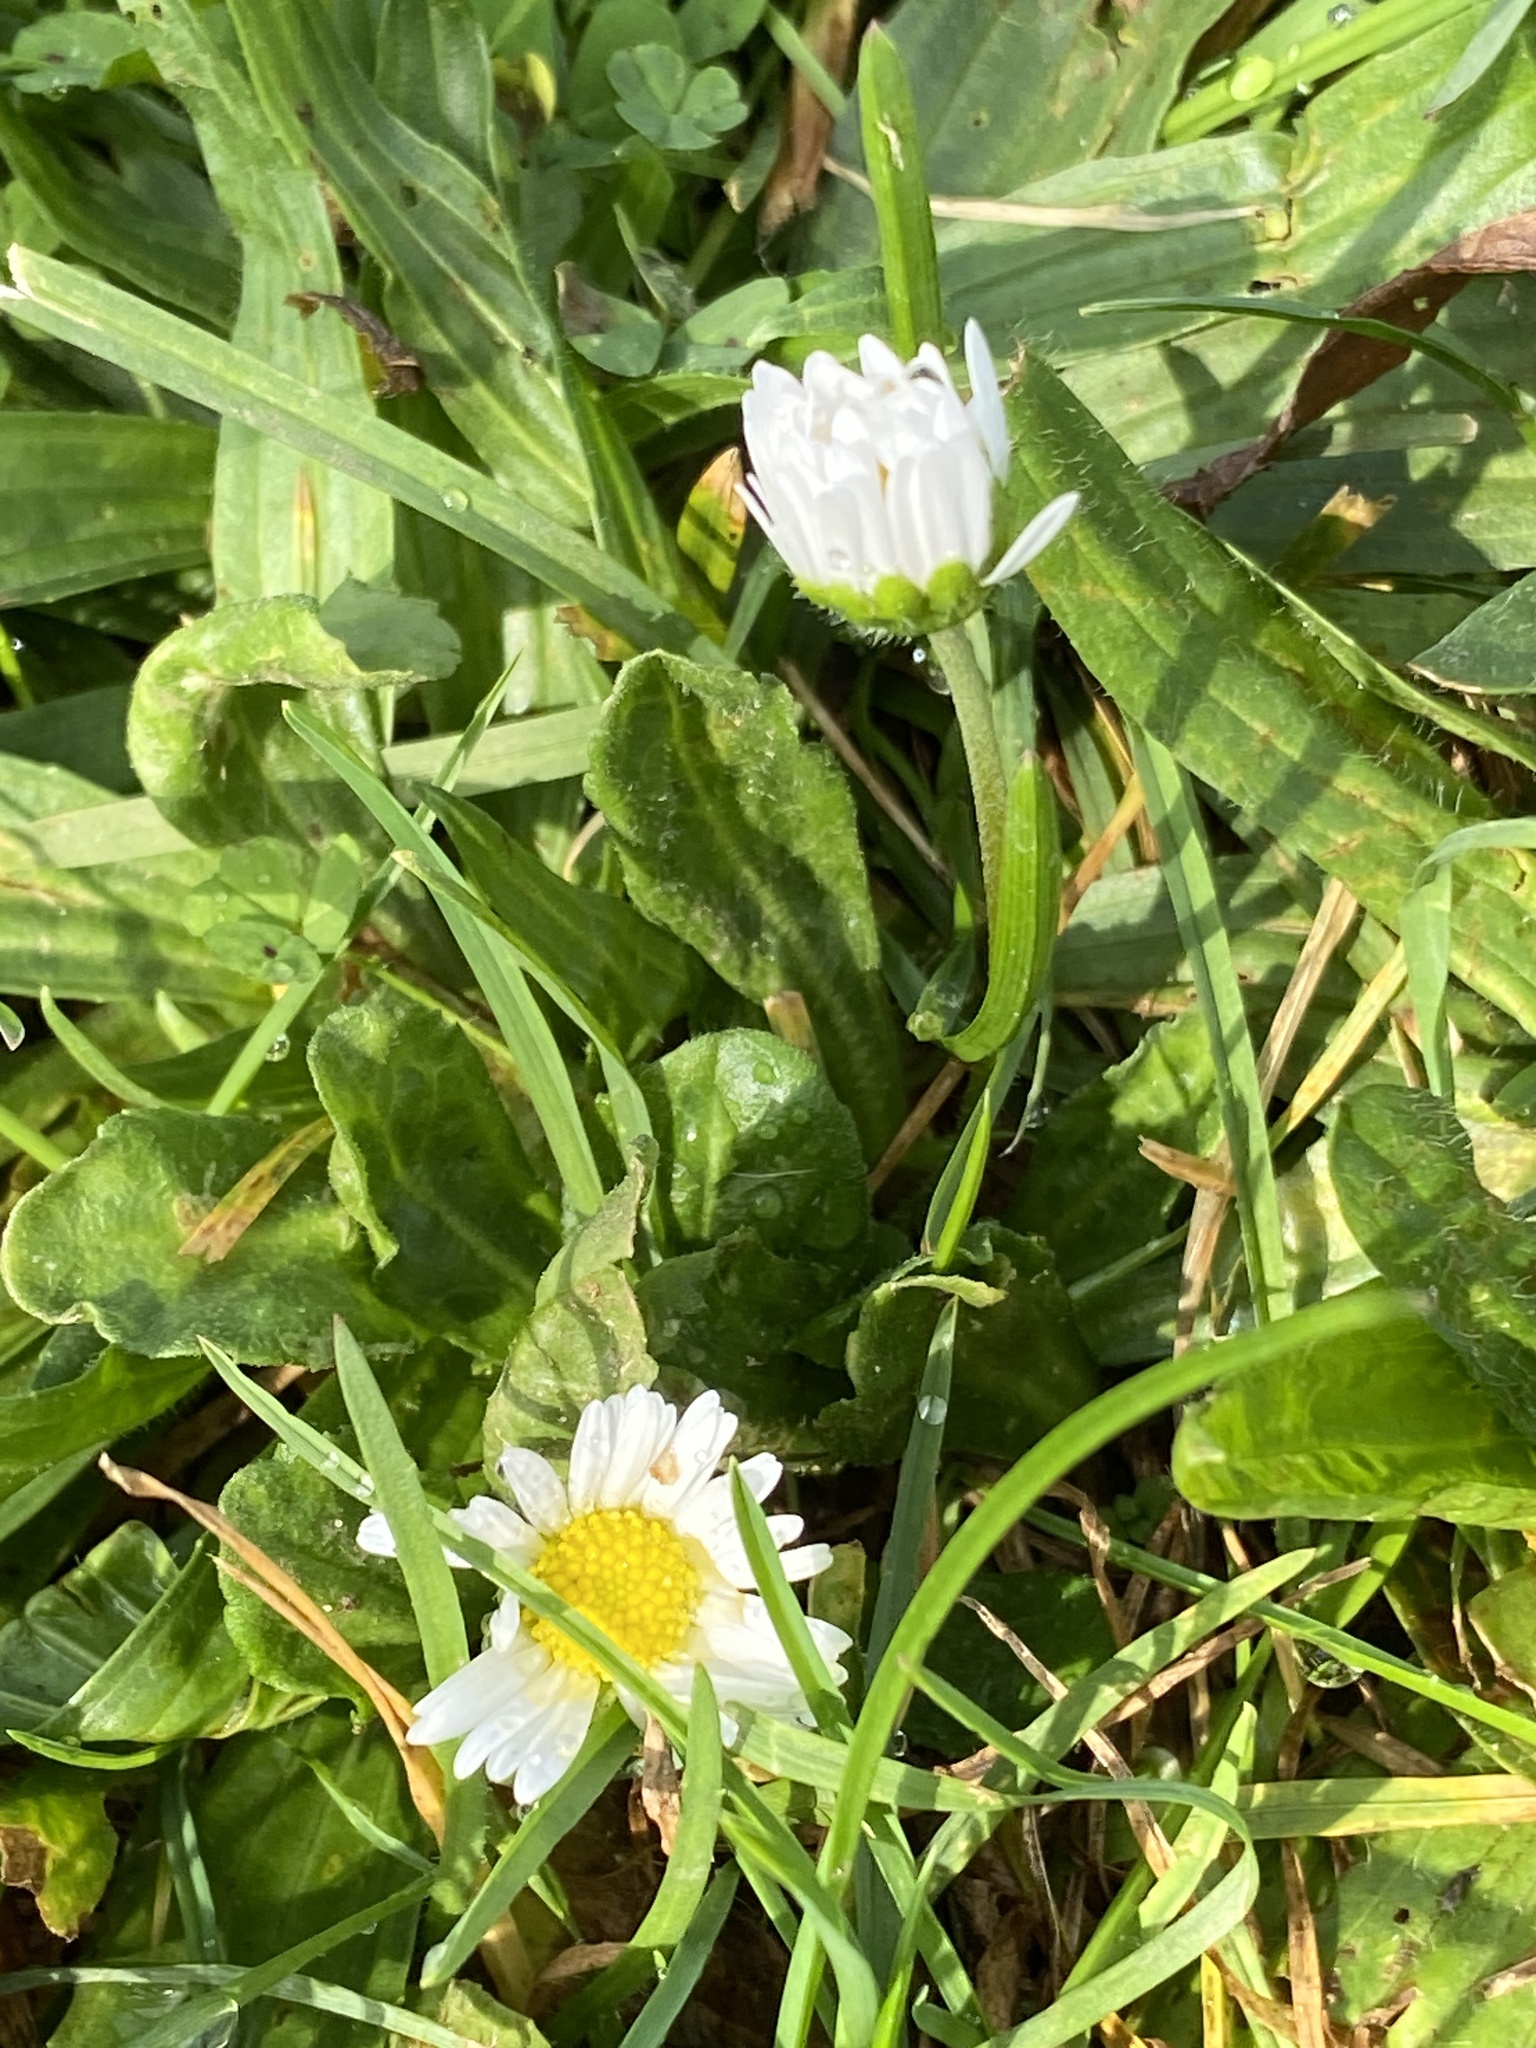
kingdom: Plantae
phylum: Tracheophyta
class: Magnoliopsida
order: Asterales
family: Asteraceae
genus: Bellis
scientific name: Bellis perennis
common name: Lawndaisy
